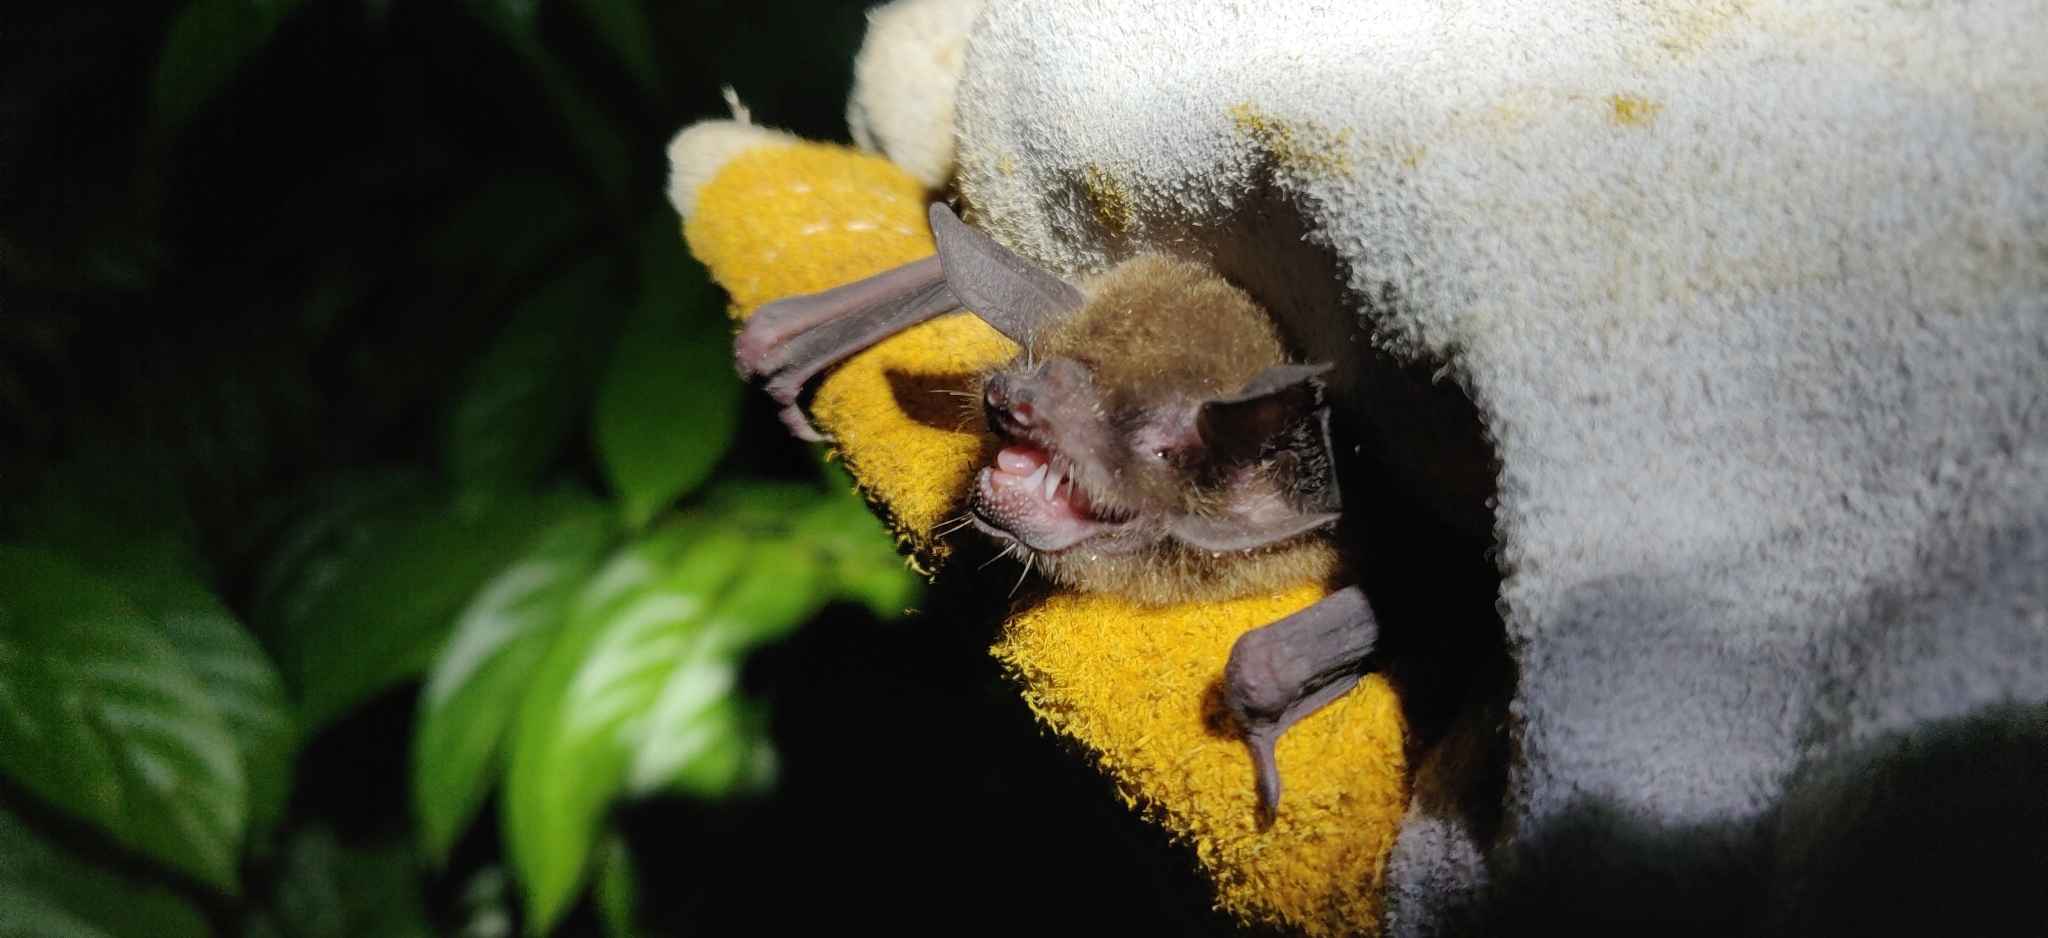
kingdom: Animalia
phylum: Chordata
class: Mammalia
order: Chiroptera
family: Mormoopidae
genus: Pteronotus
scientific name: Pteronotus parnellii
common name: Common mustached bat
